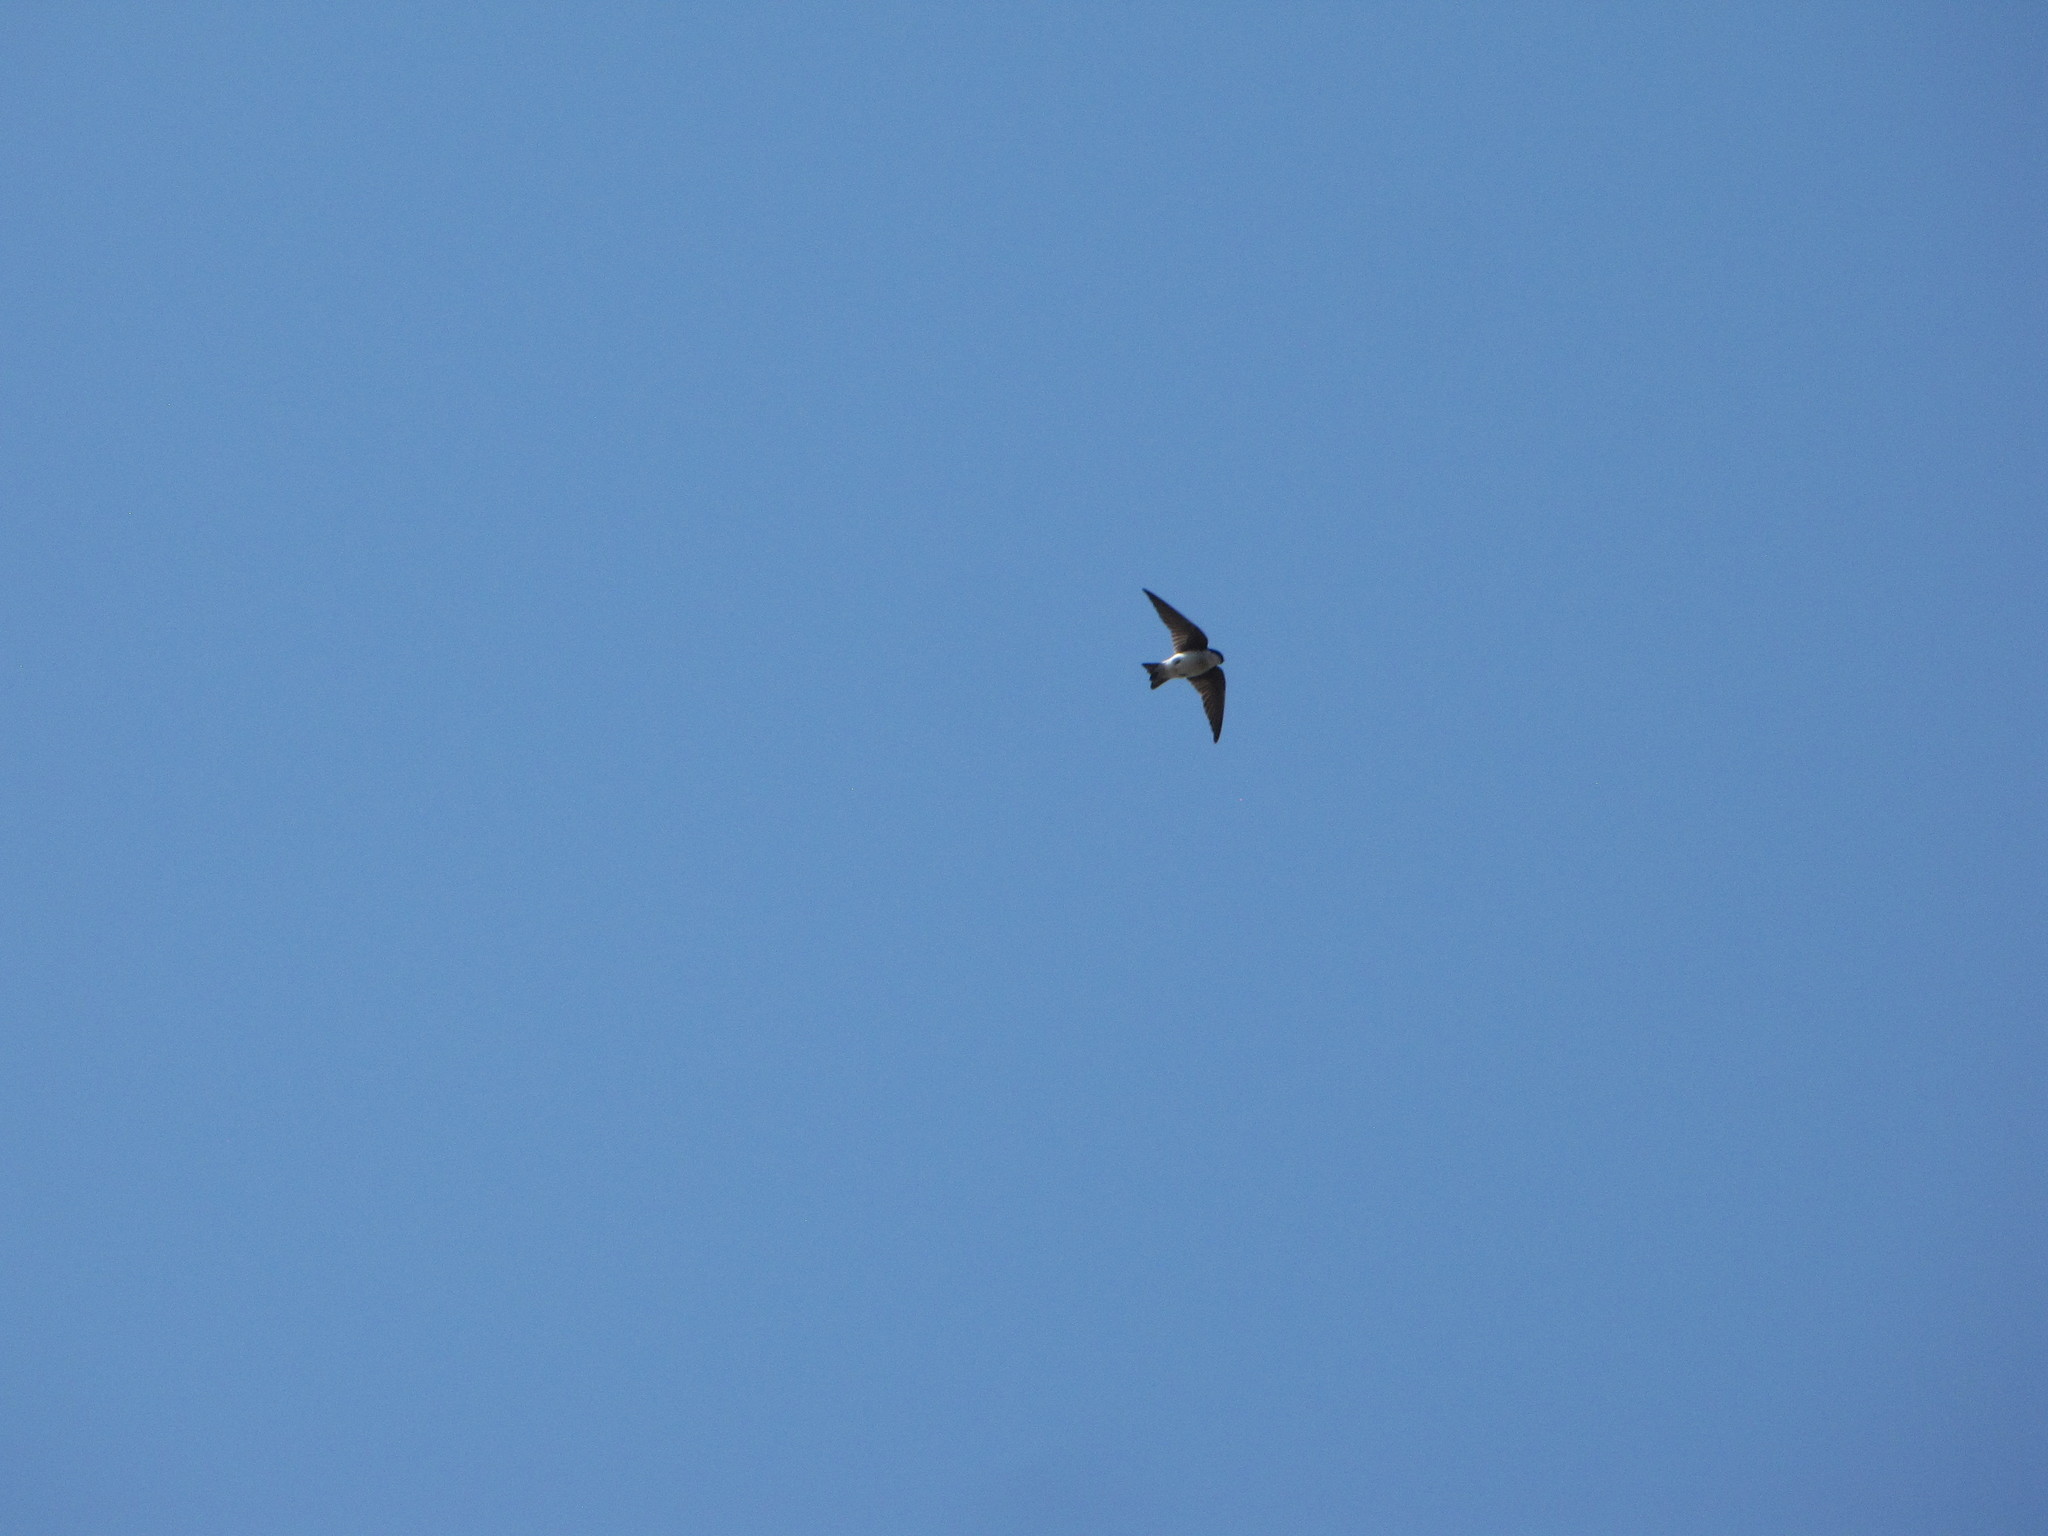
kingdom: Animalia
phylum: Chordata
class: Aves
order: Passeriformes
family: Hirundinidae
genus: Tachycineta
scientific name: Tachycineta bicolor
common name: Tree swallow
